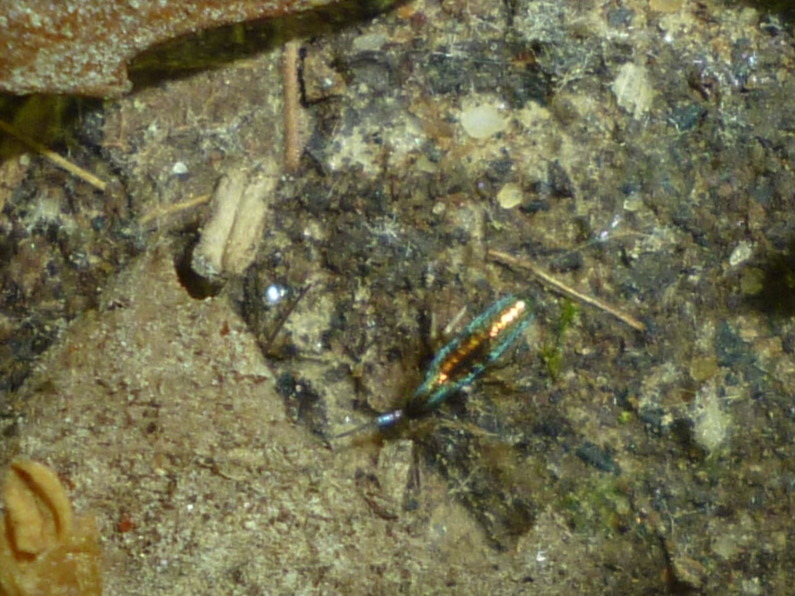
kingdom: Animalia
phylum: Arthropoda
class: Collembola
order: Entomobryomorpha
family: Entomobryidae
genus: Lepidocyrtus
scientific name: Lepidocyrtus paradoxus
